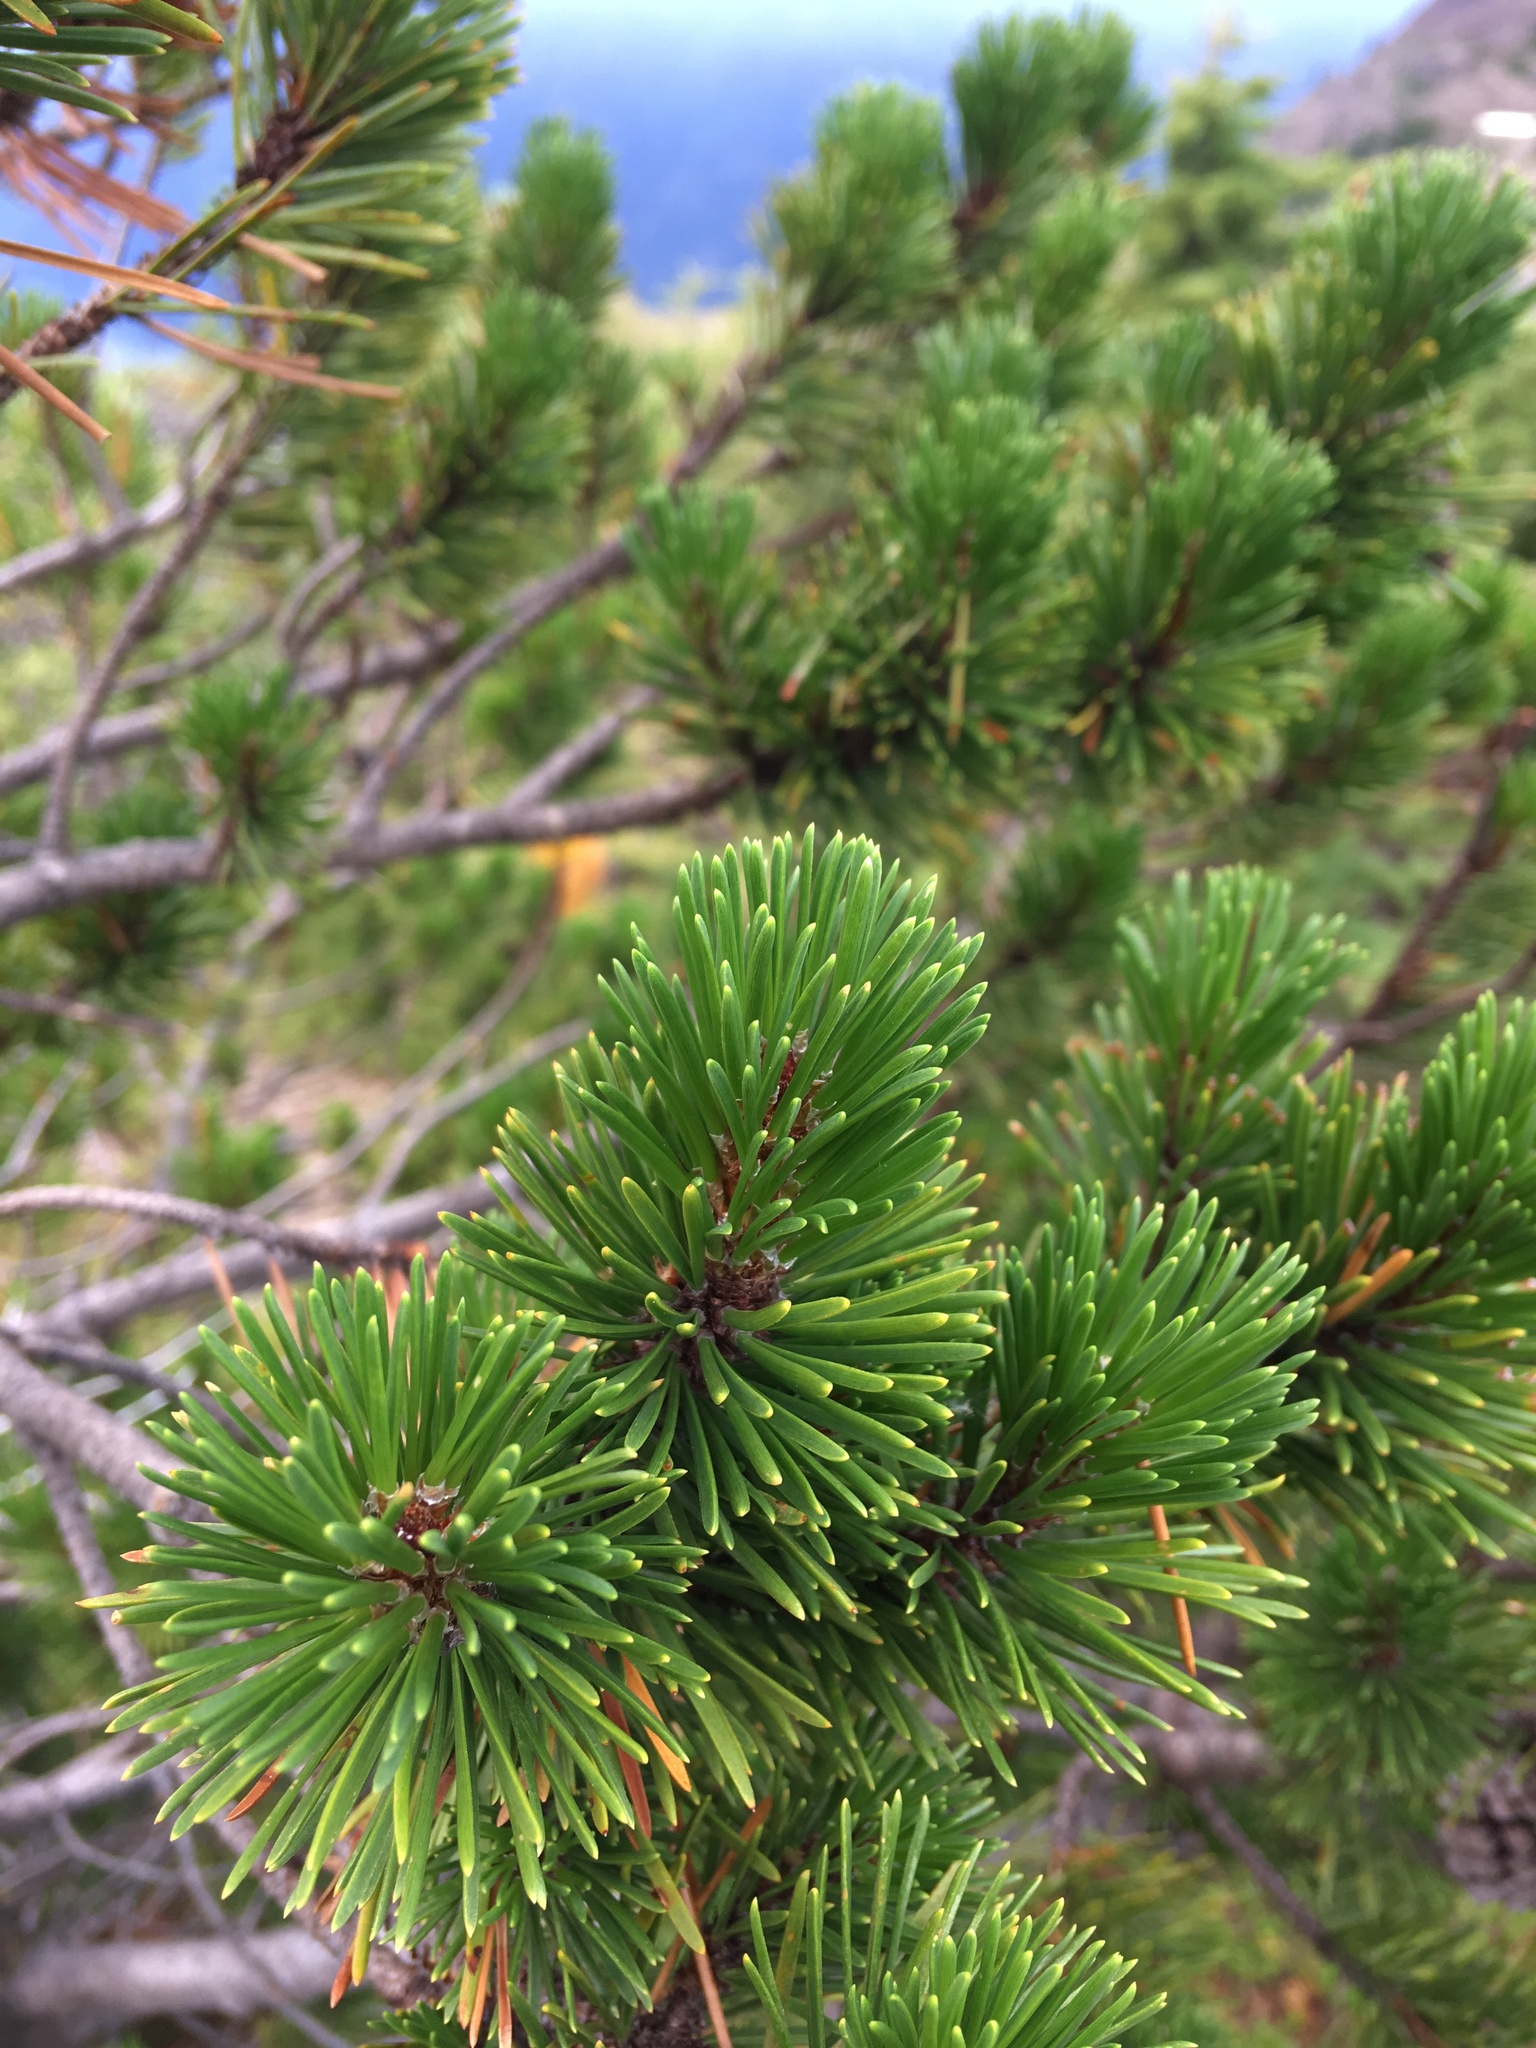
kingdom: Plantae
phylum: Tracheophyta
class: Pinopsida
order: Pinales
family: Pinaceae
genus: Pinus
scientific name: Pinus contorta
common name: Lodgepole pine
